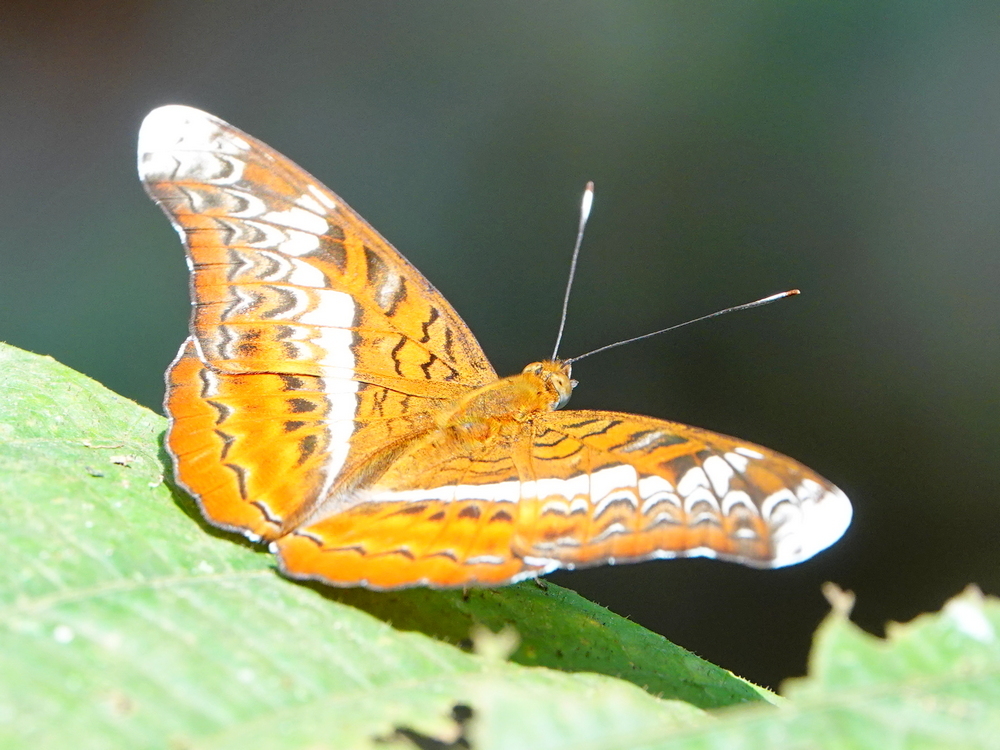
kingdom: Animalia
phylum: Arthropoda
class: Insecta
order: Lepidoptera
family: Nymphalidae
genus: Lebadea
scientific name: Lebadea martha
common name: Knight
